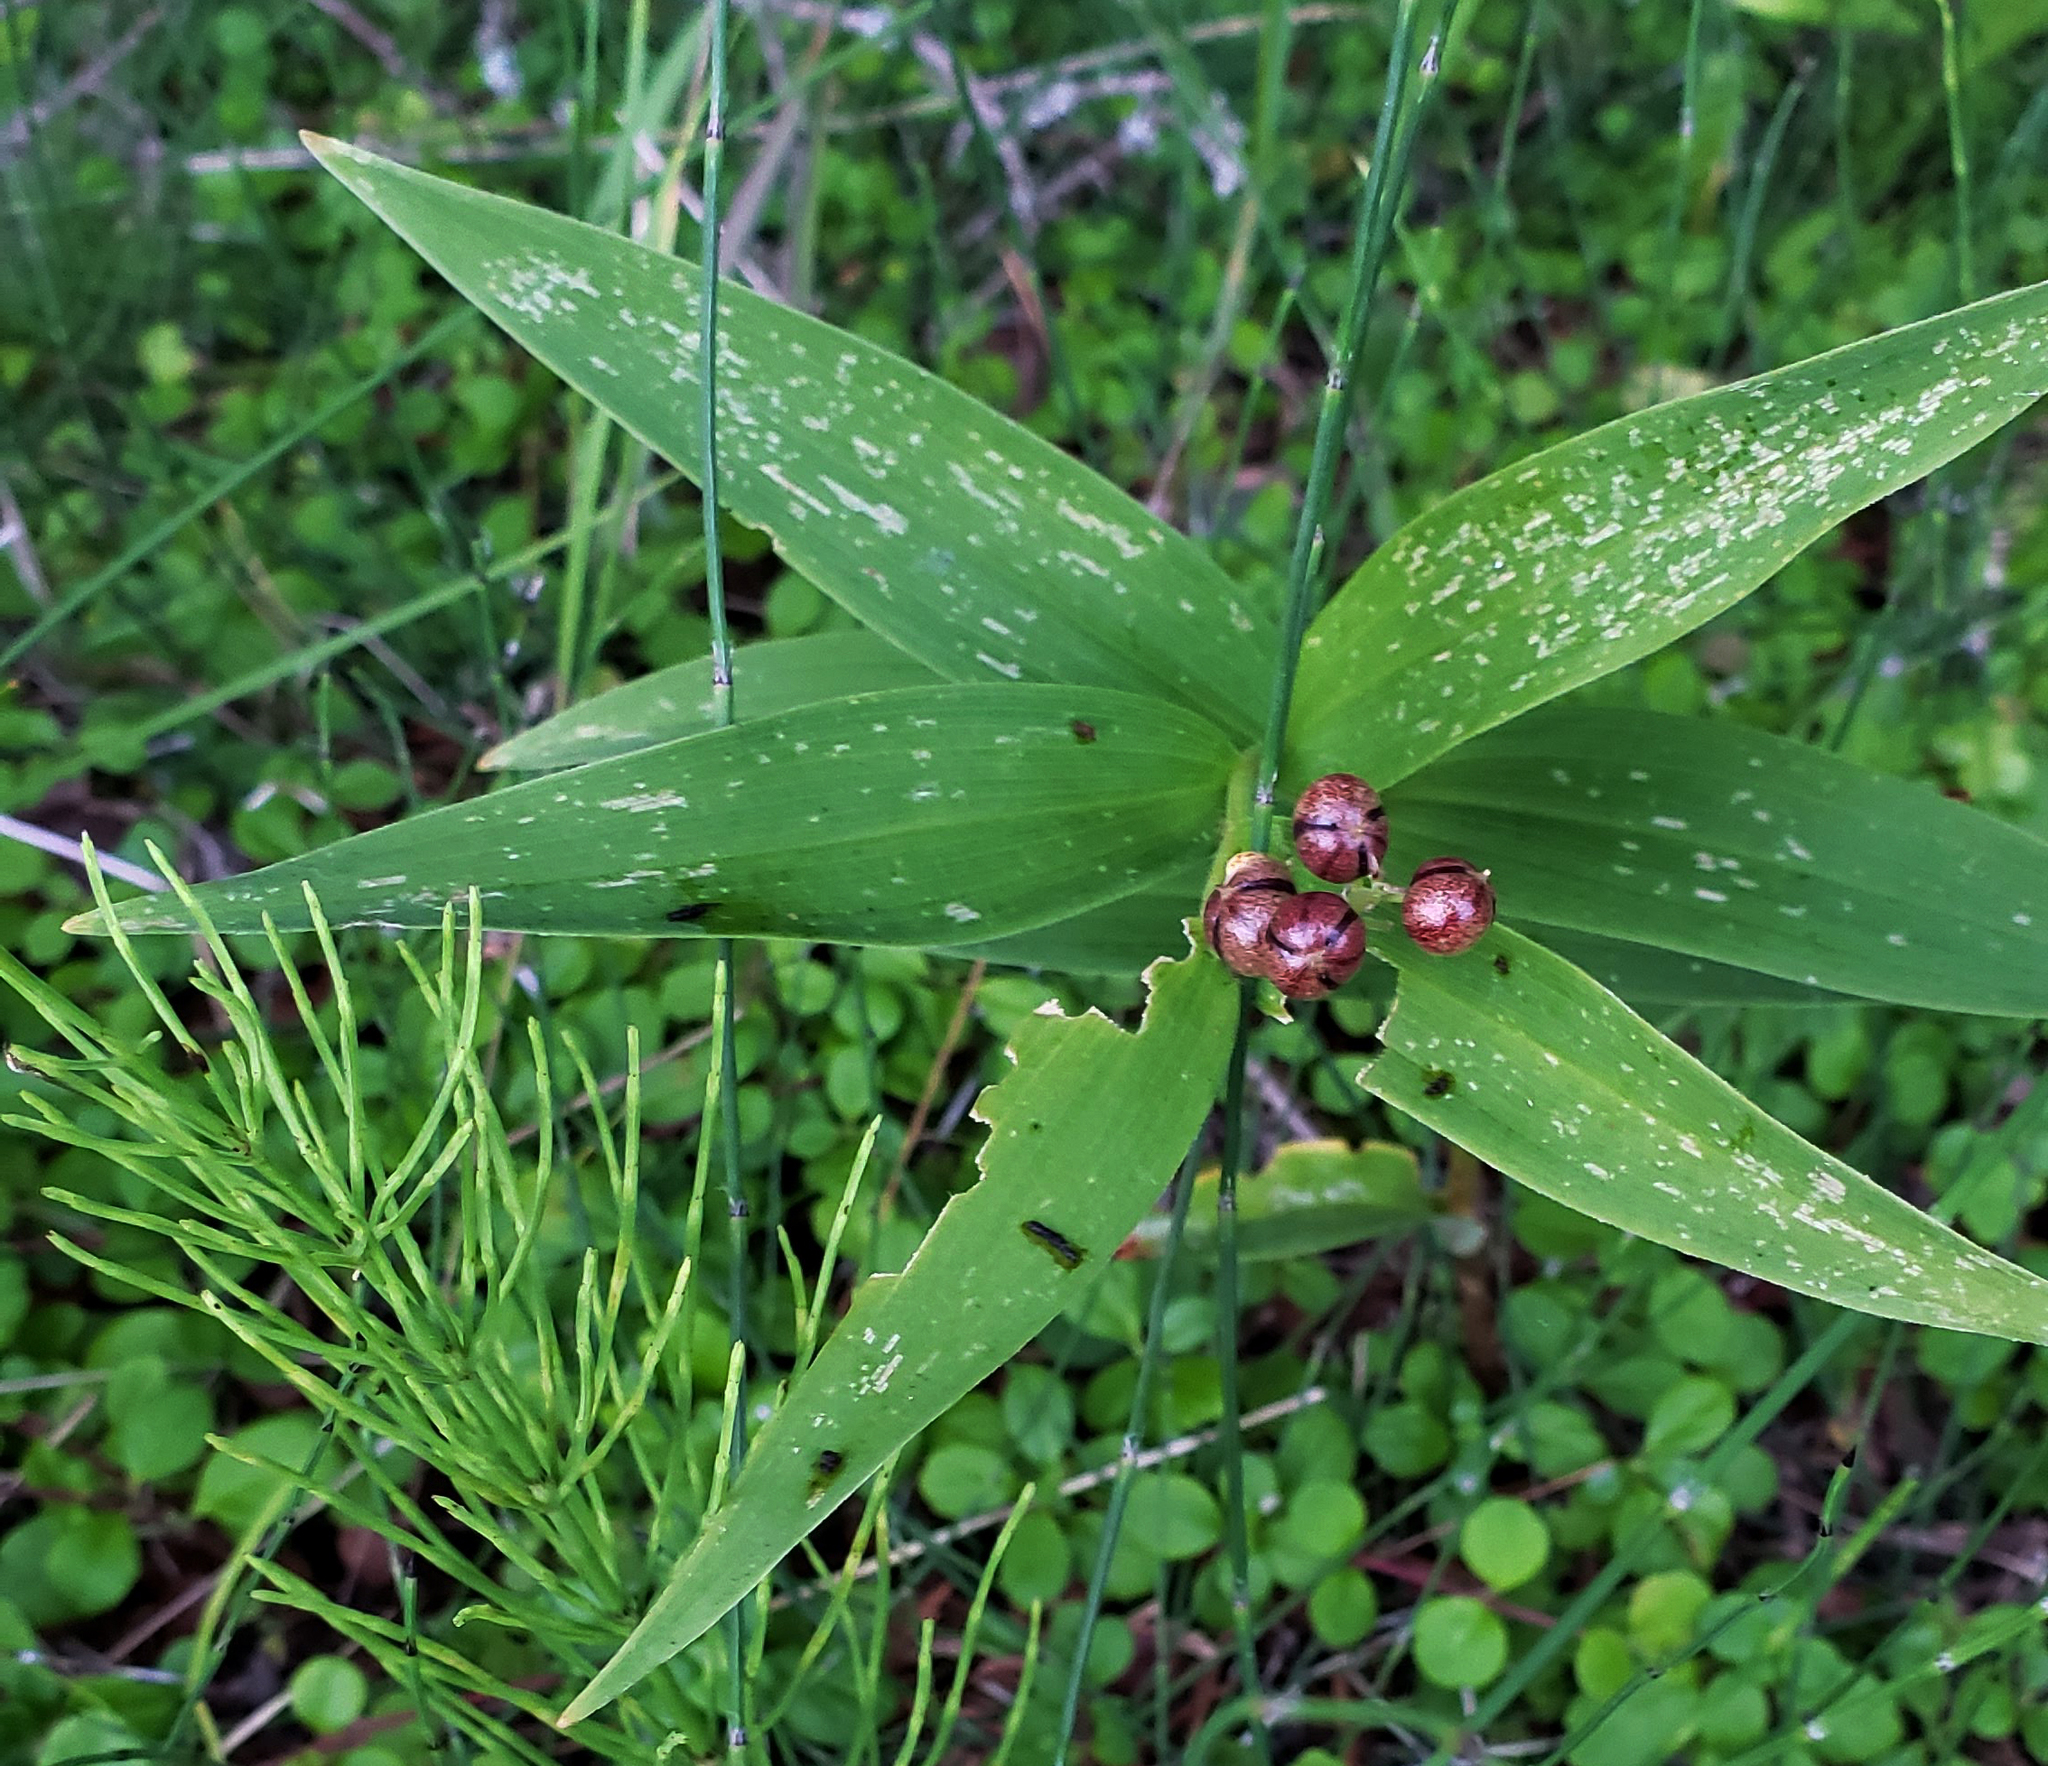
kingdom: Plantae
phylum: Tracheophyta
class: Liliopsida
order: Asparagales
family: Asparagaceae
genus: Maianthemum
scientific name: Maianthemum stellatum
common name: Little false solomon's seal
